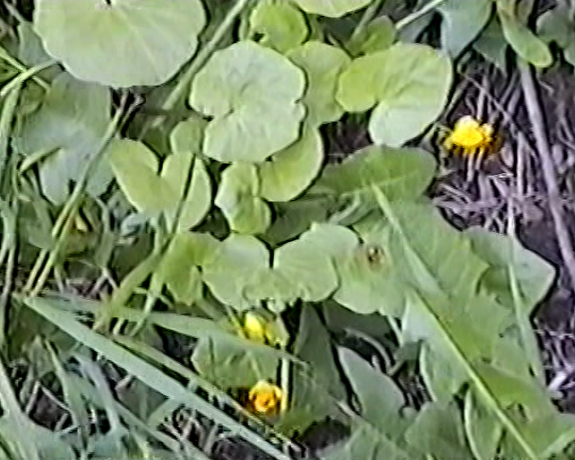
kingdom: Plantae
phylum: Tracheophyta
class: Magnoliopsida
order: Ranunculales
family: Ranunculaceae
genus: Ficaria
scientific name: Ficaria verna
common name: Lesser celandine
